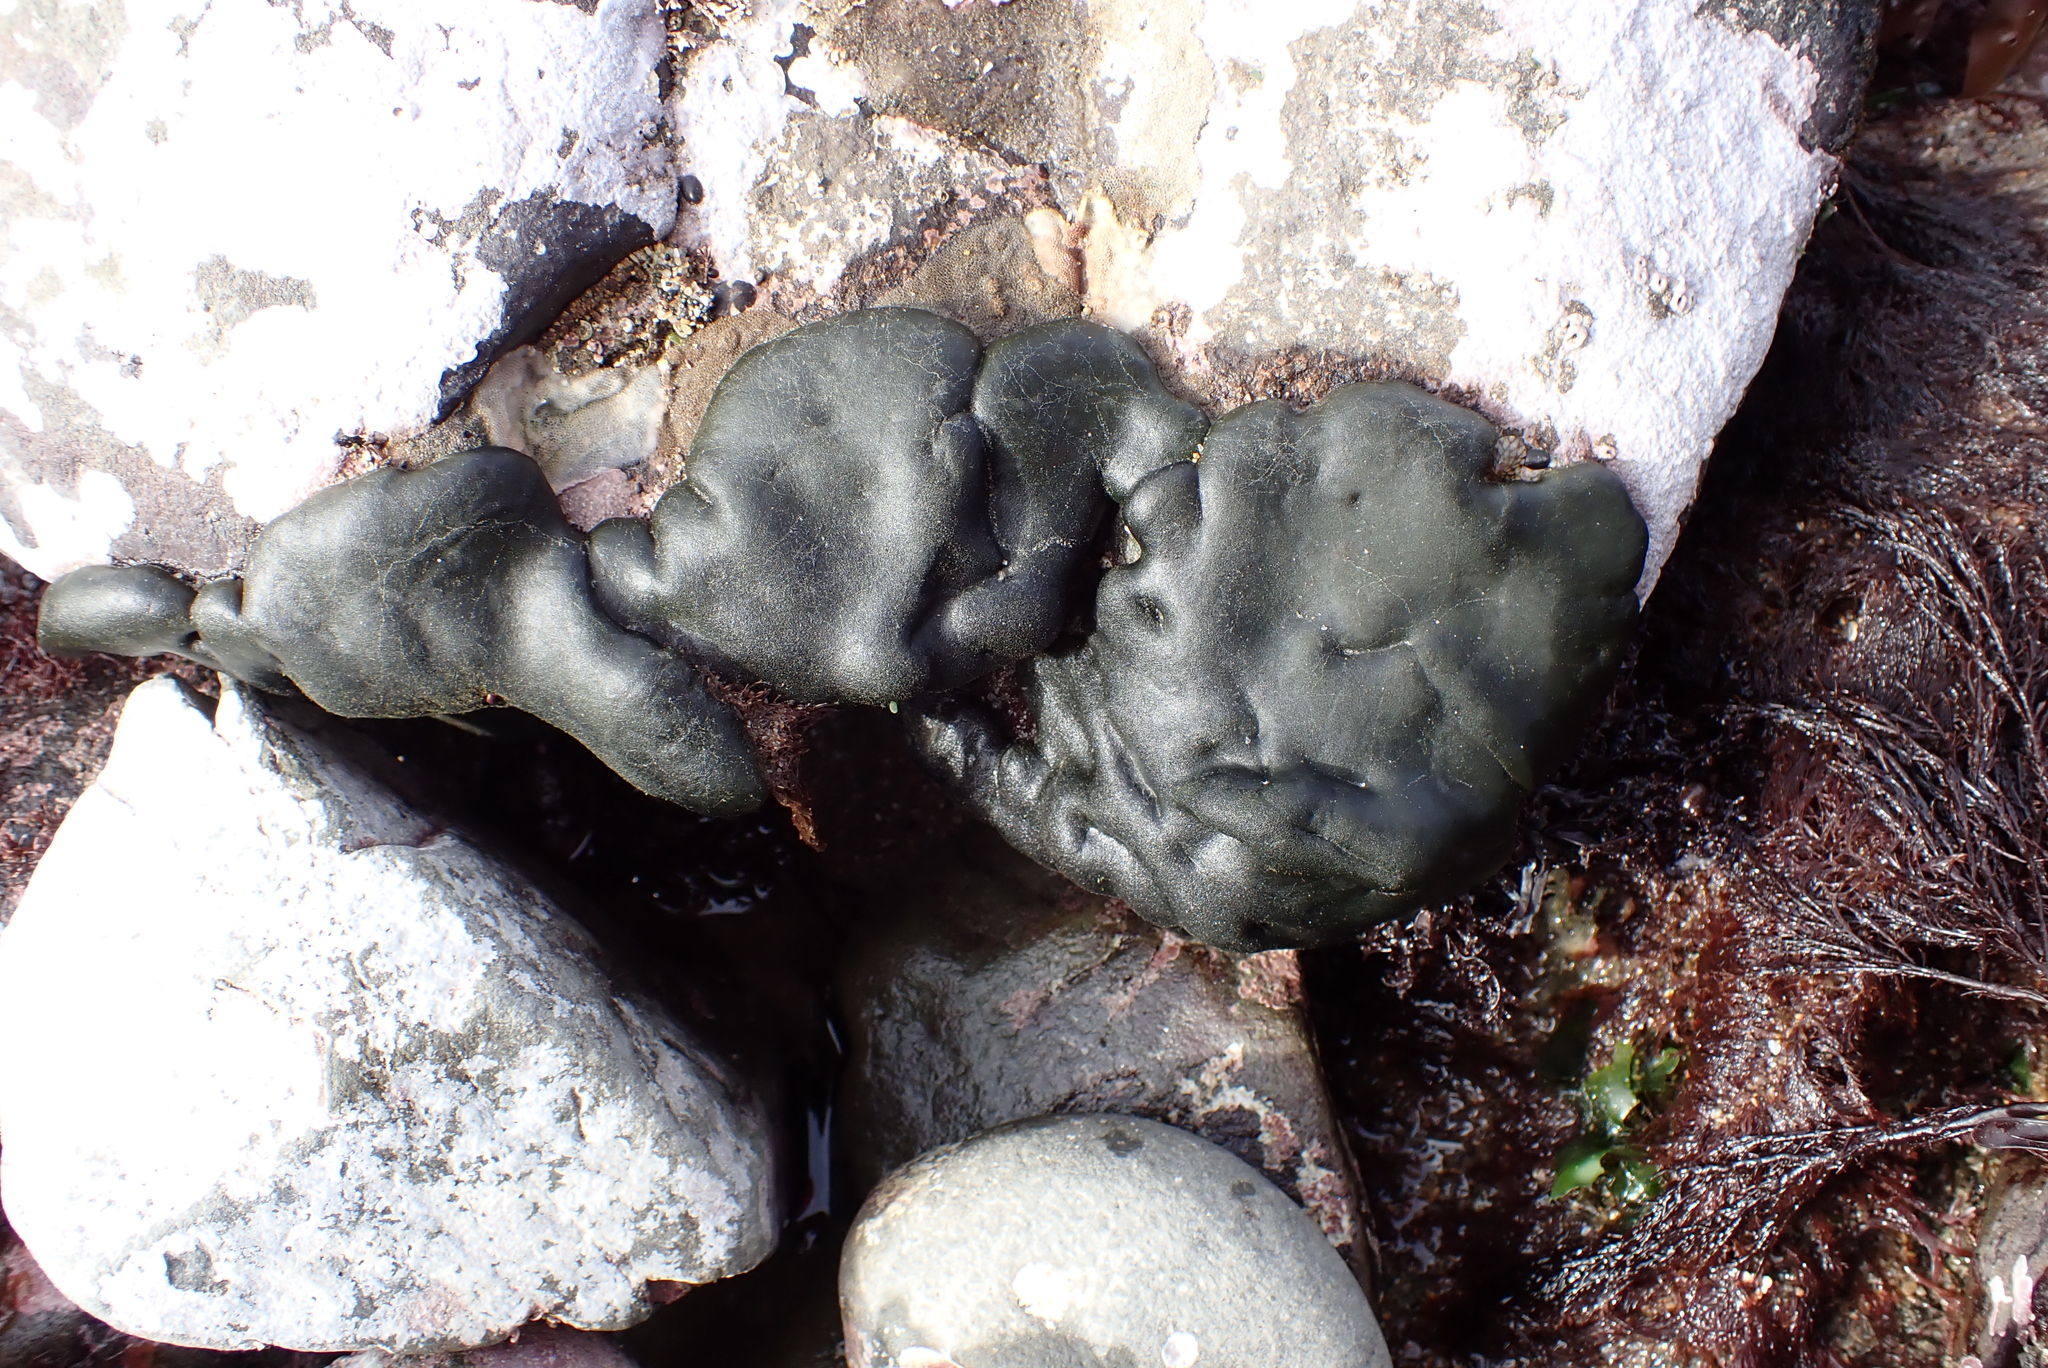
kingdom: Plantae
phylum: Chlorophyta
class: Ulvophyceae
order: Bryopsidales
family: Codiaceae
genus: Codium
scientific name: Codium setchellii
